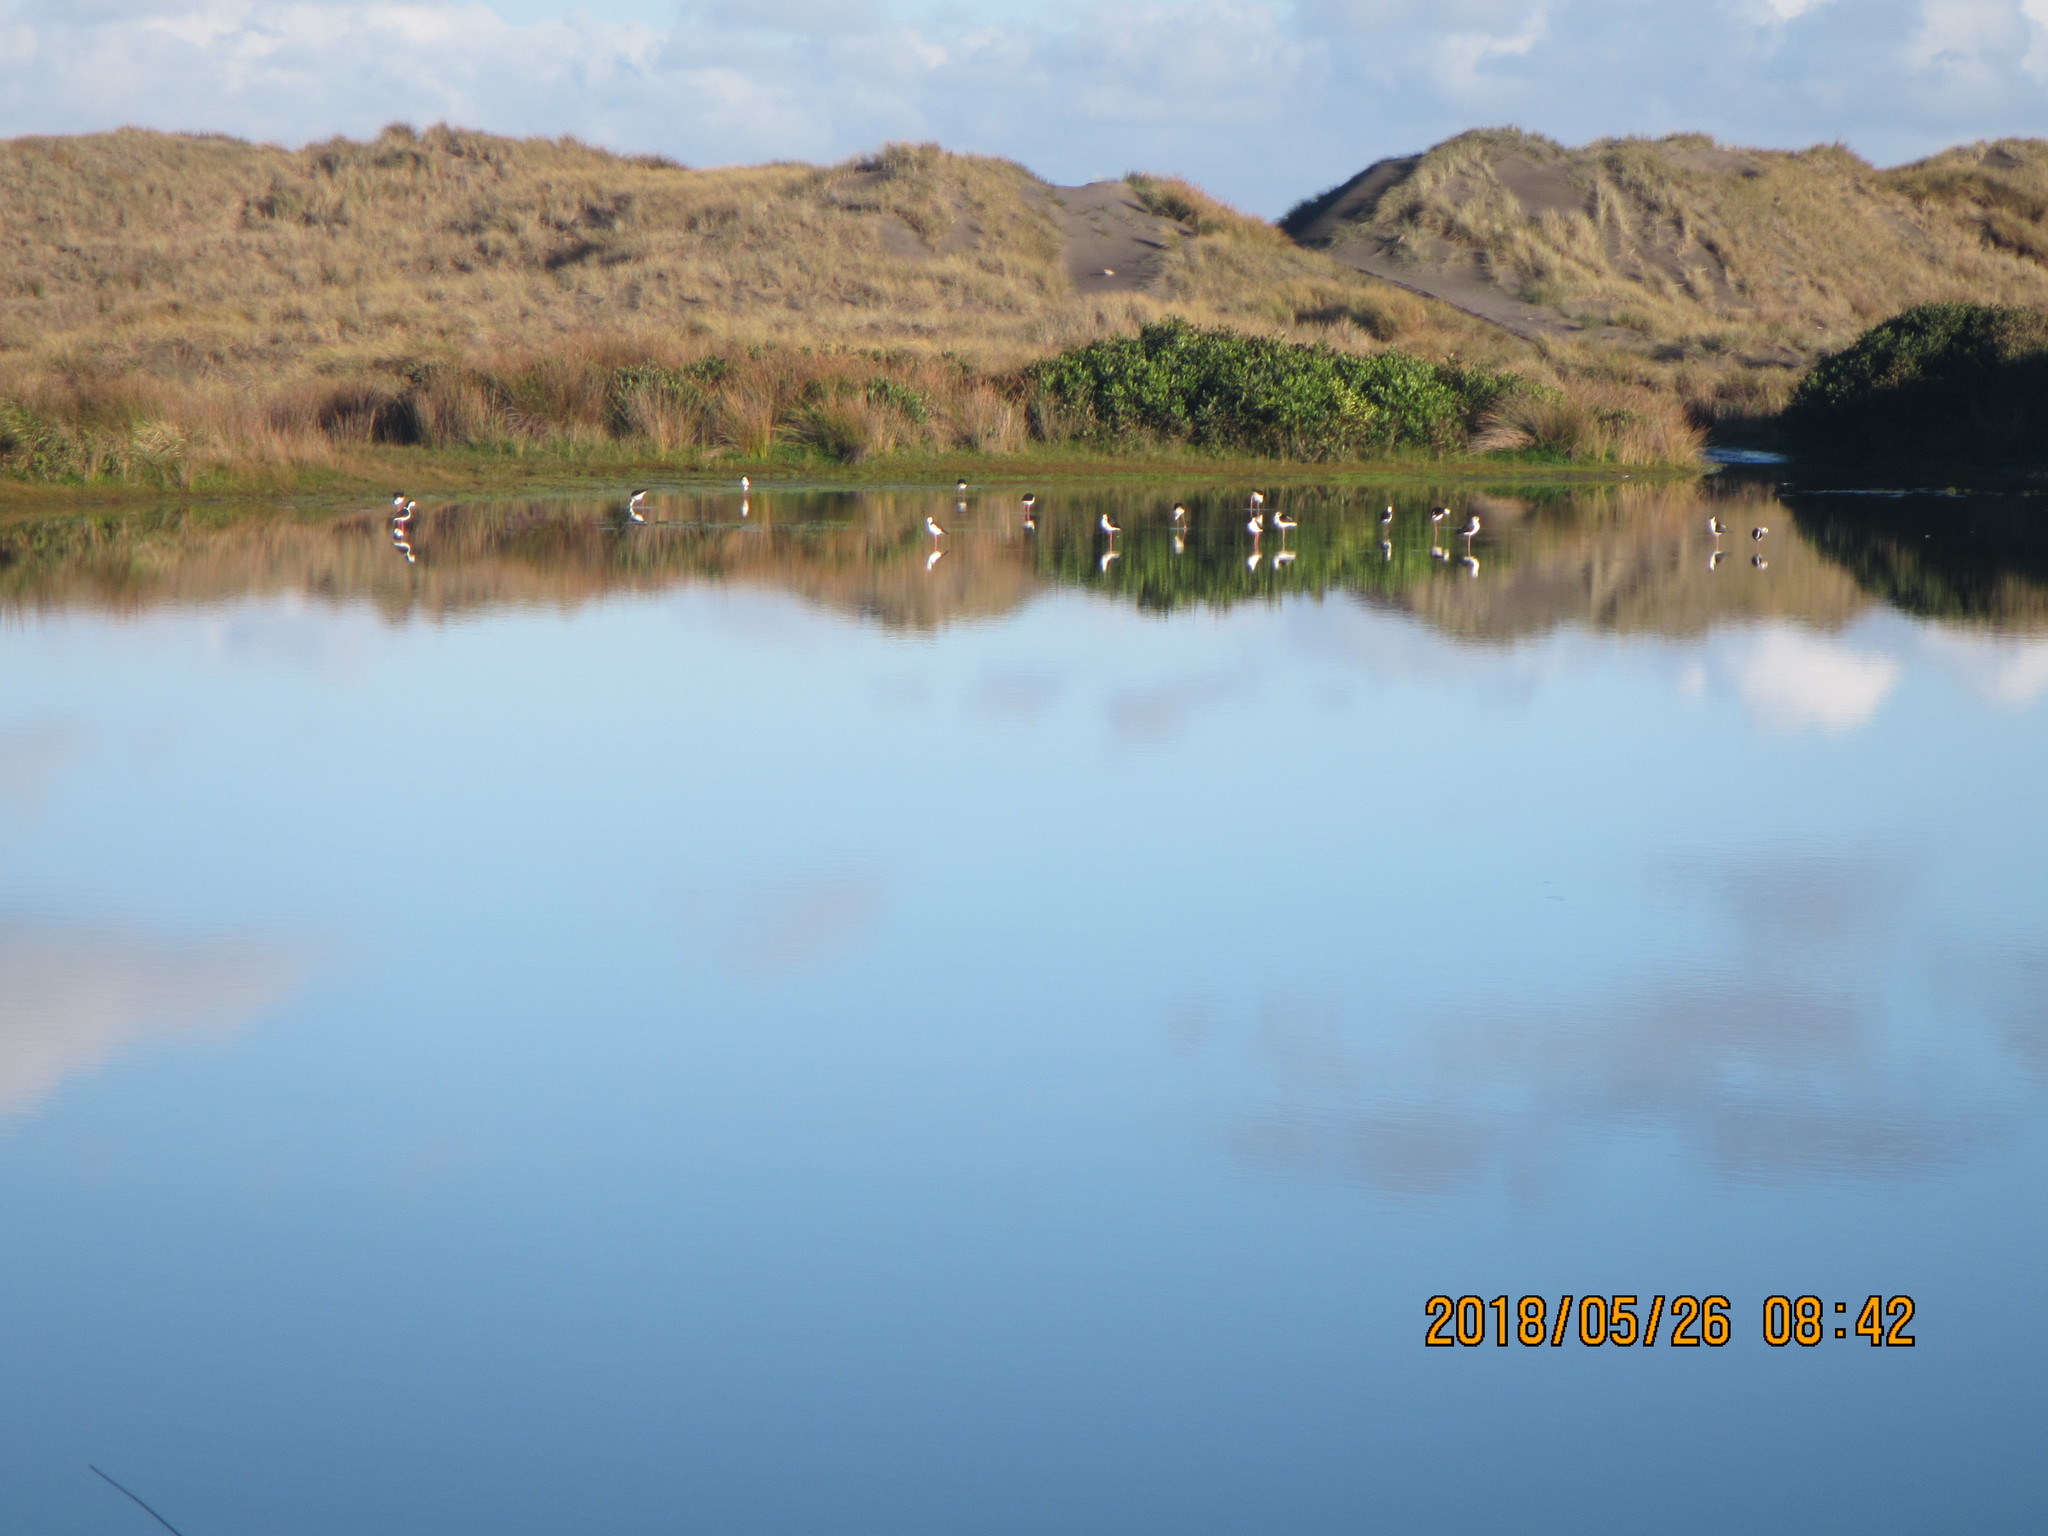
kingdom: Animalia
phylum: Chordata
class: Aves
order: Charadriiformes
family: Recurvirostridae
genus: Himantopus
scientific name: Himantopus leucocephalus
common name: White-headed stilt
